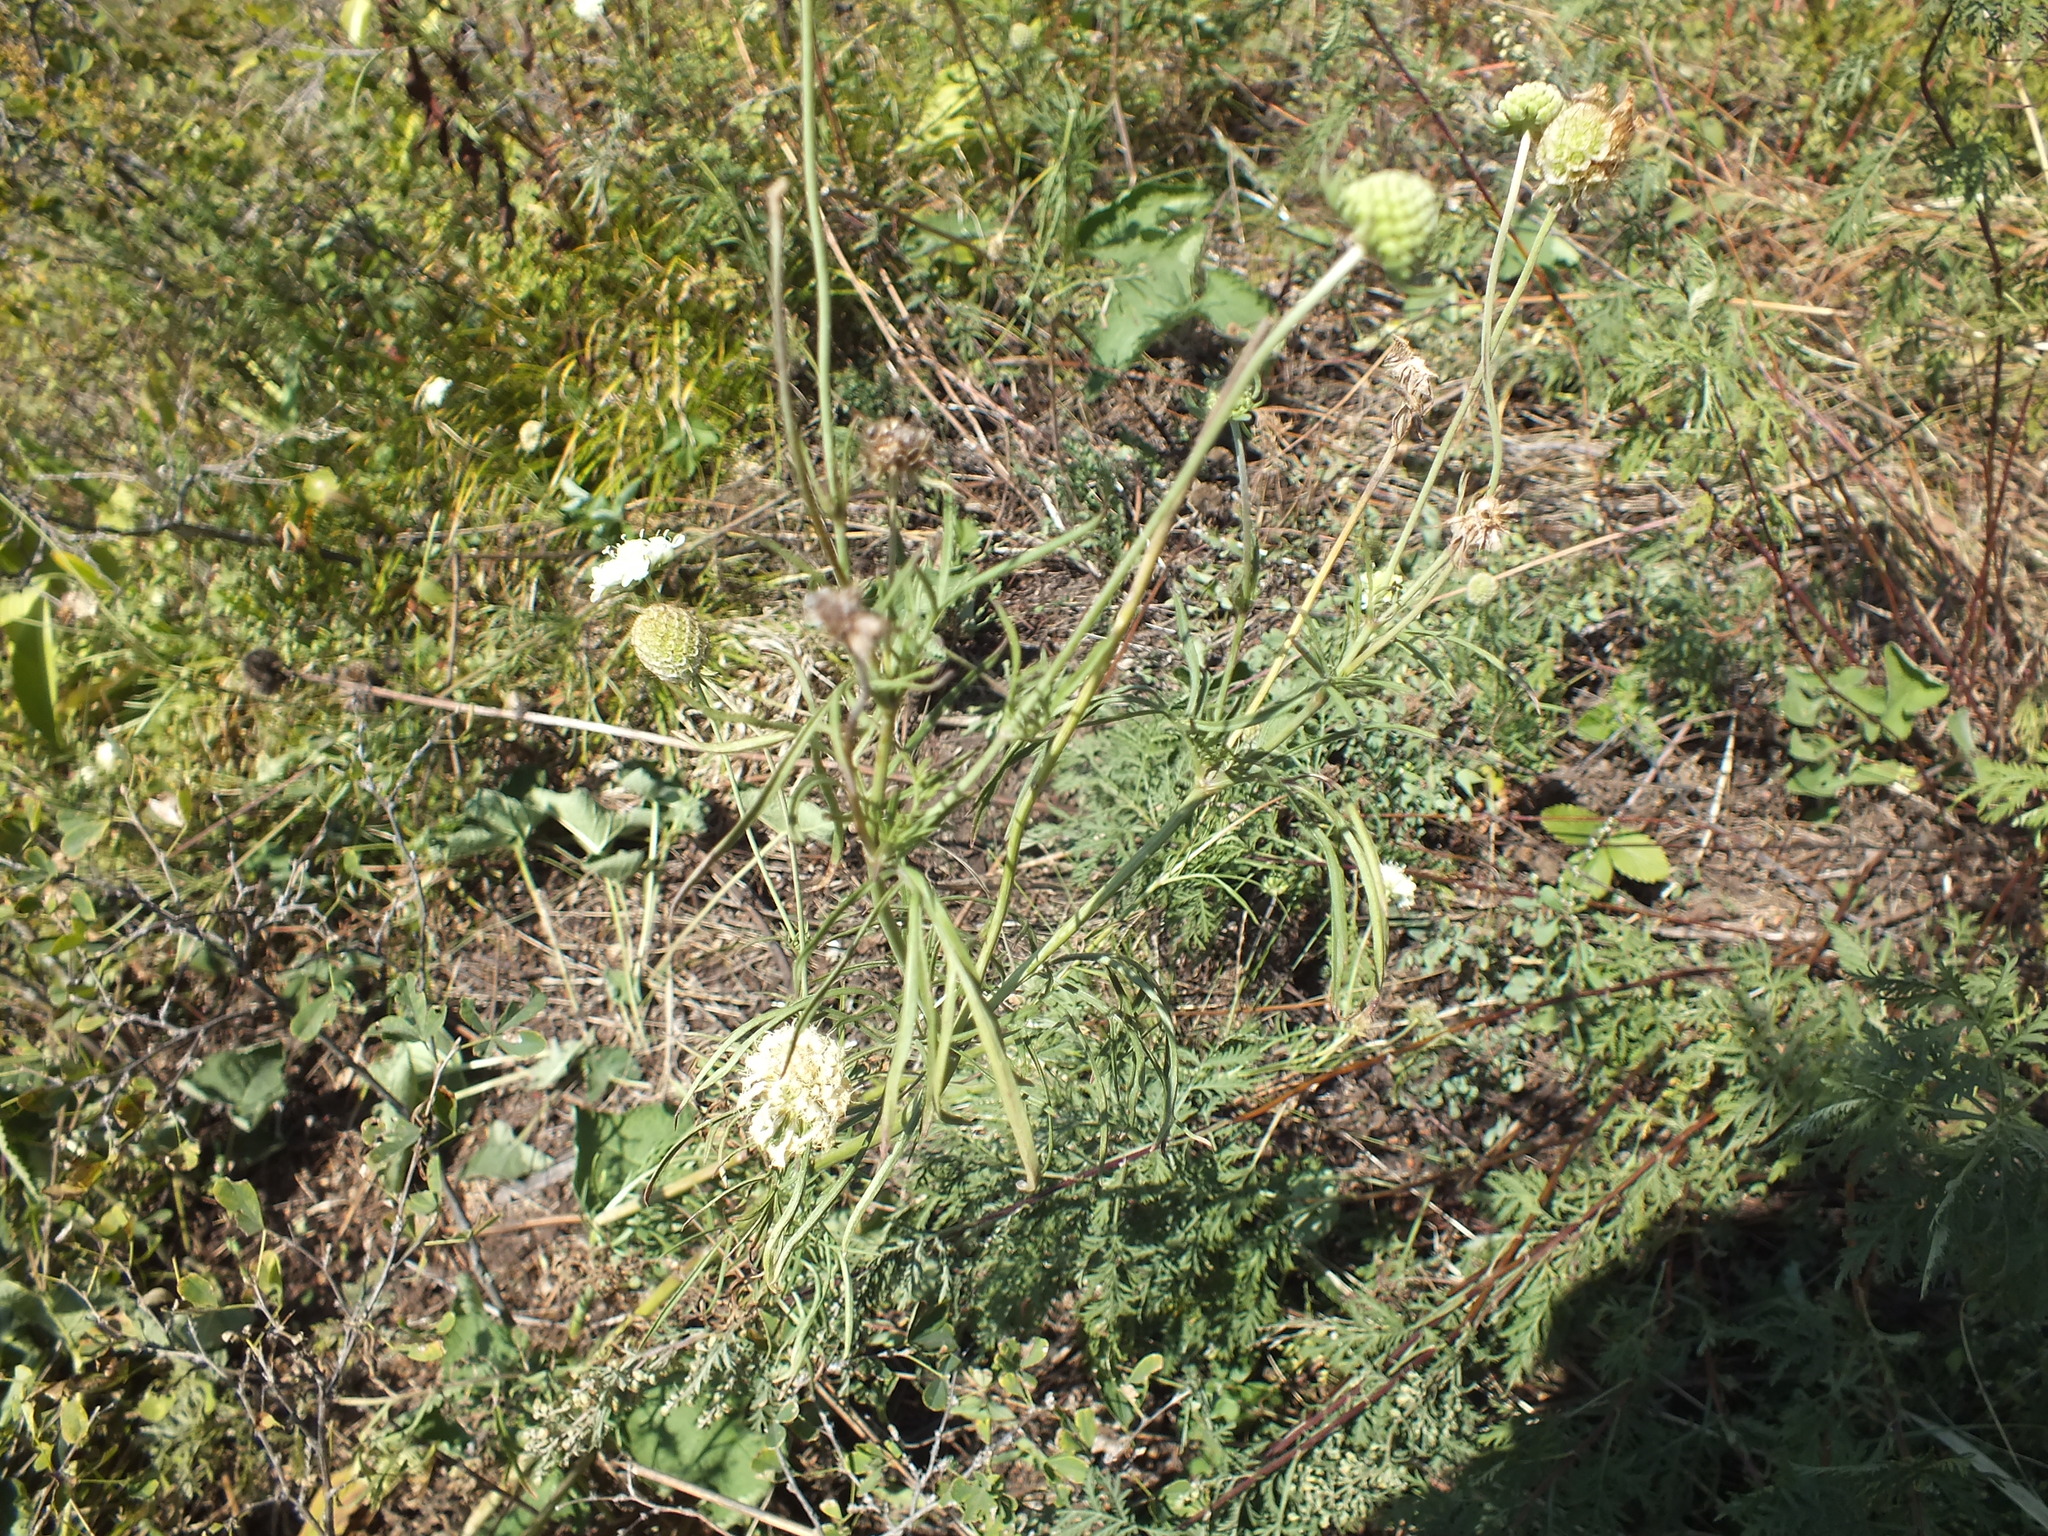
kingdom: Plantae
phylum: Tracheophyta
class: Magnoliopsida
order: Dipsacales
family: Caprifoliaceae
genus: Scabiosa
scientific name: Scabiosa ochroleuca
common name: Cream pincushions
